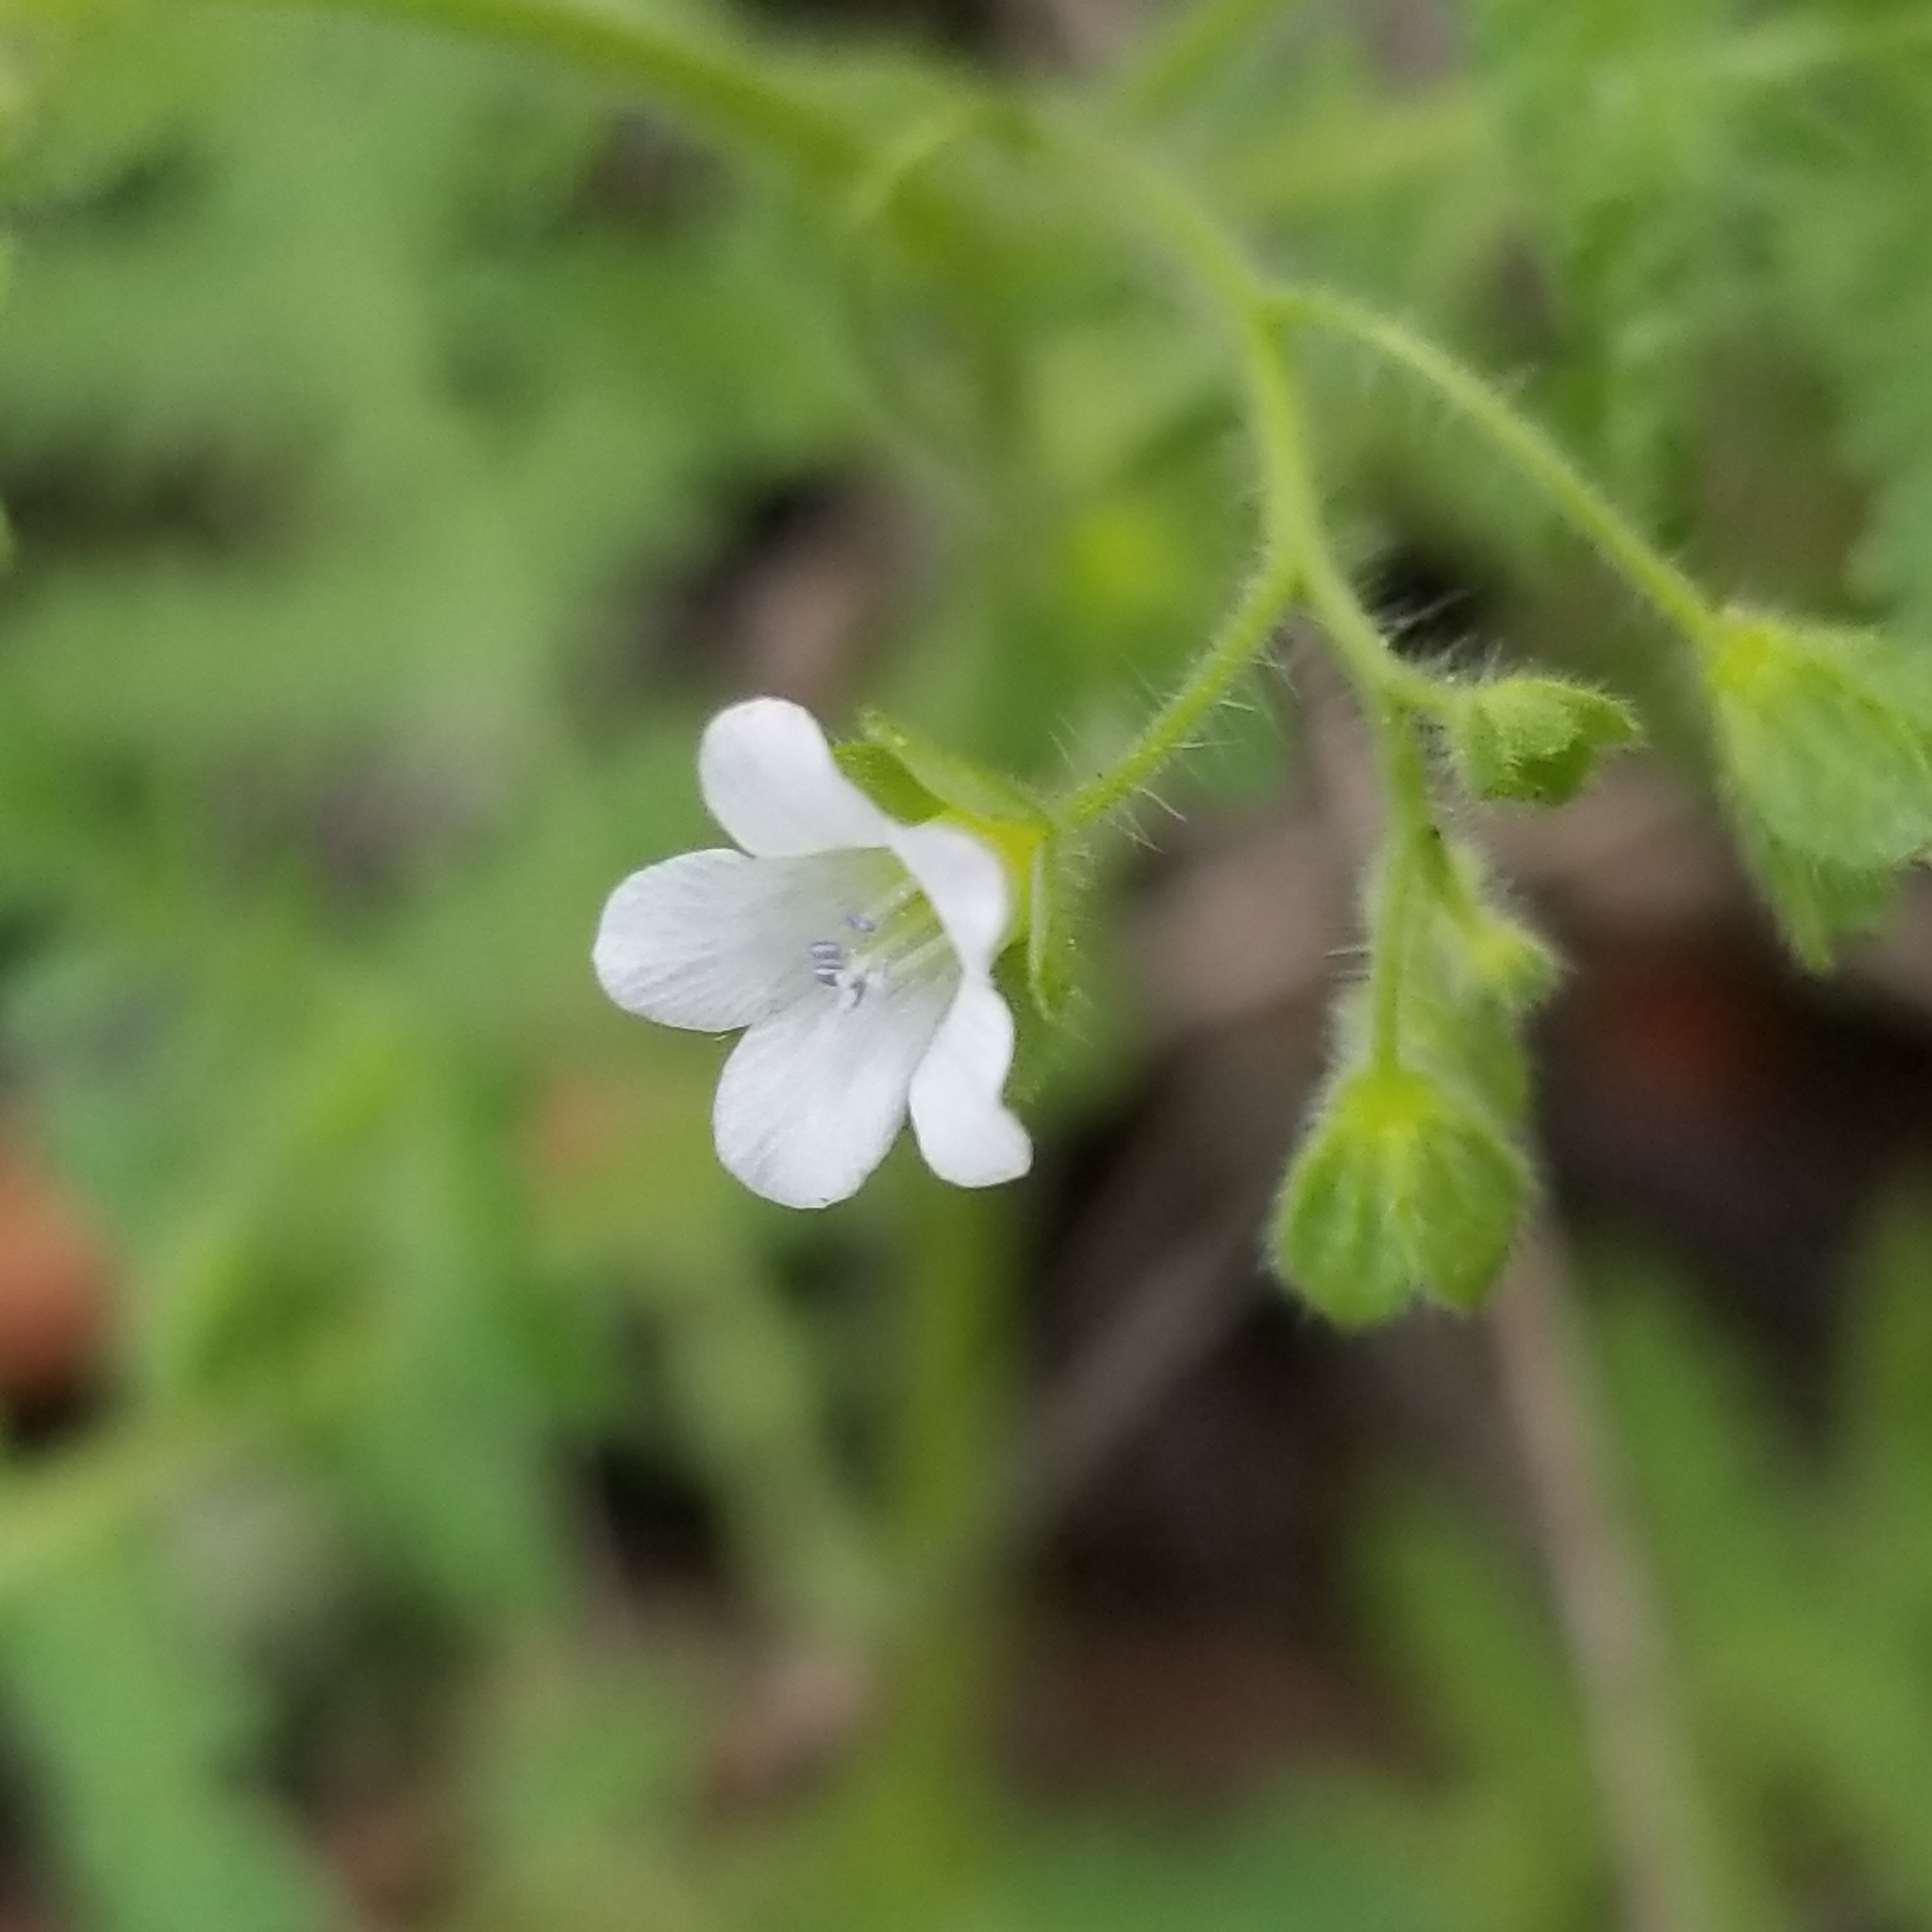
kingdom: Plantae
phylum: Tracheophyta
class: Magnoliopsida
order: Boraginales
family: Hydrophyllaceae
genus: Eucrypta
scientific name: Eucrypta chrysanthemifolia
